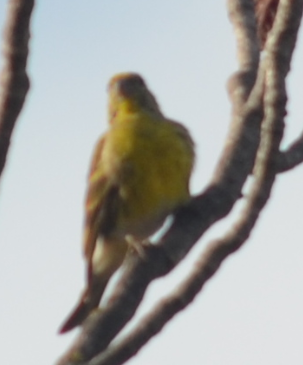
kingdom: Animalia
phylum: Chordata
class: Aves
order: Passeriformes
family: Fringillidae
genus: Serinus
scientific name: Serinus serinus
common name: European serin
